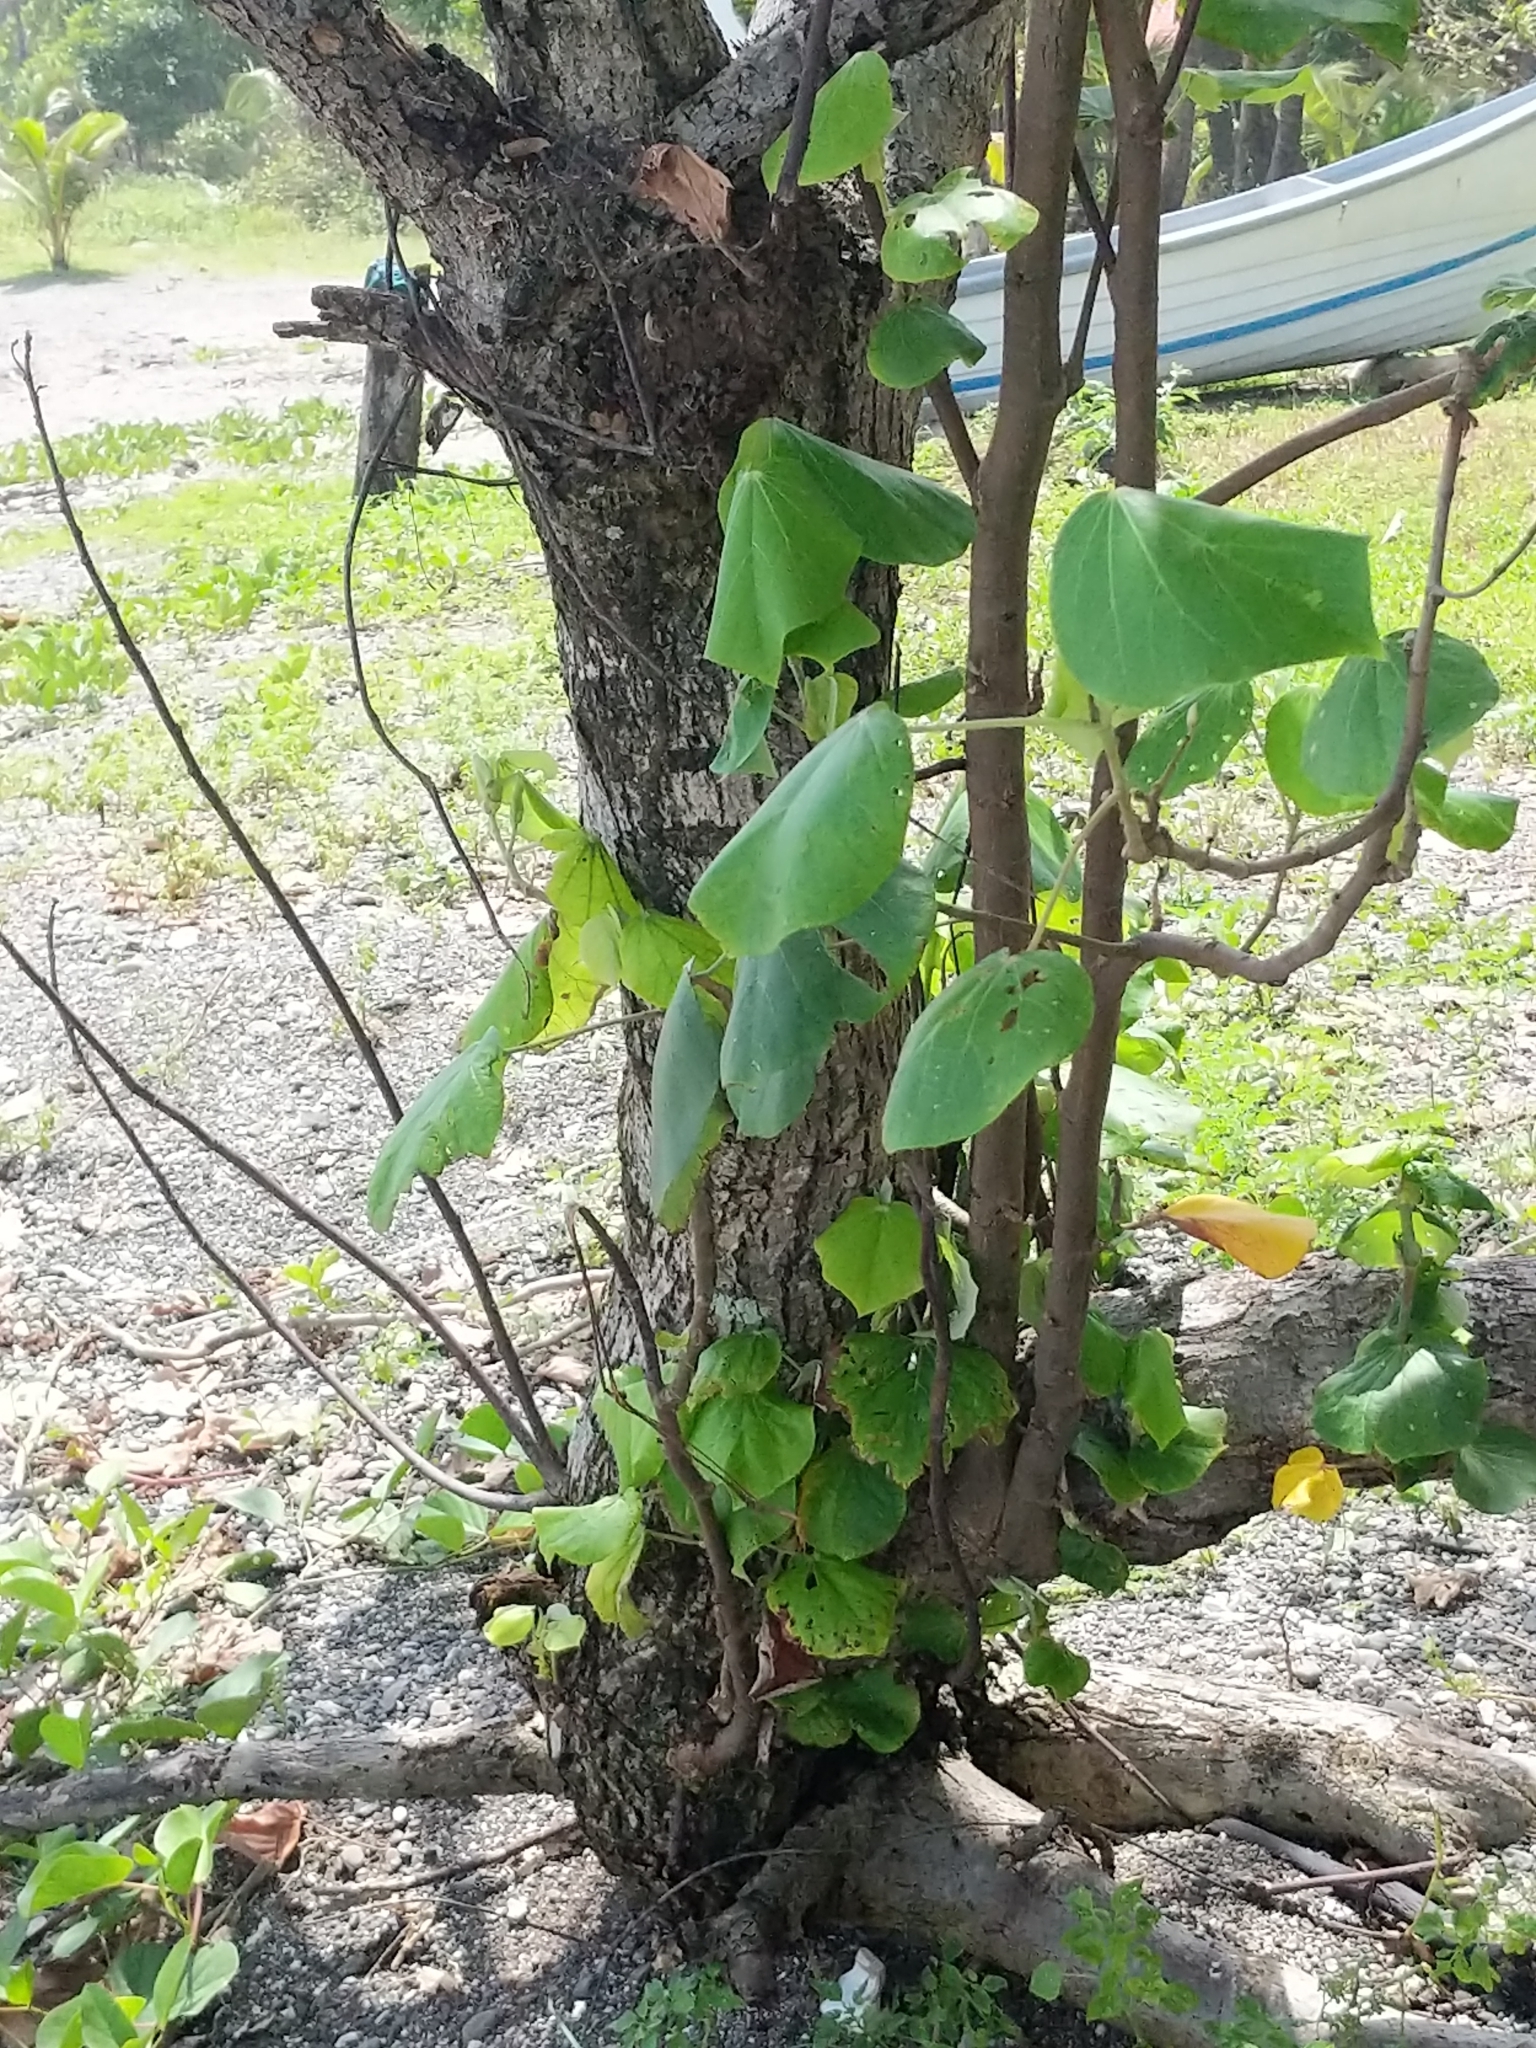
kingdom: Plantae
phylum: Tracheophyta
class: Magnoliopsida
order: Malvales
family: Malvaceae
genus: Talipariti
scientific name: Talipariti tiliaceum
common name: Sea hibiscus
